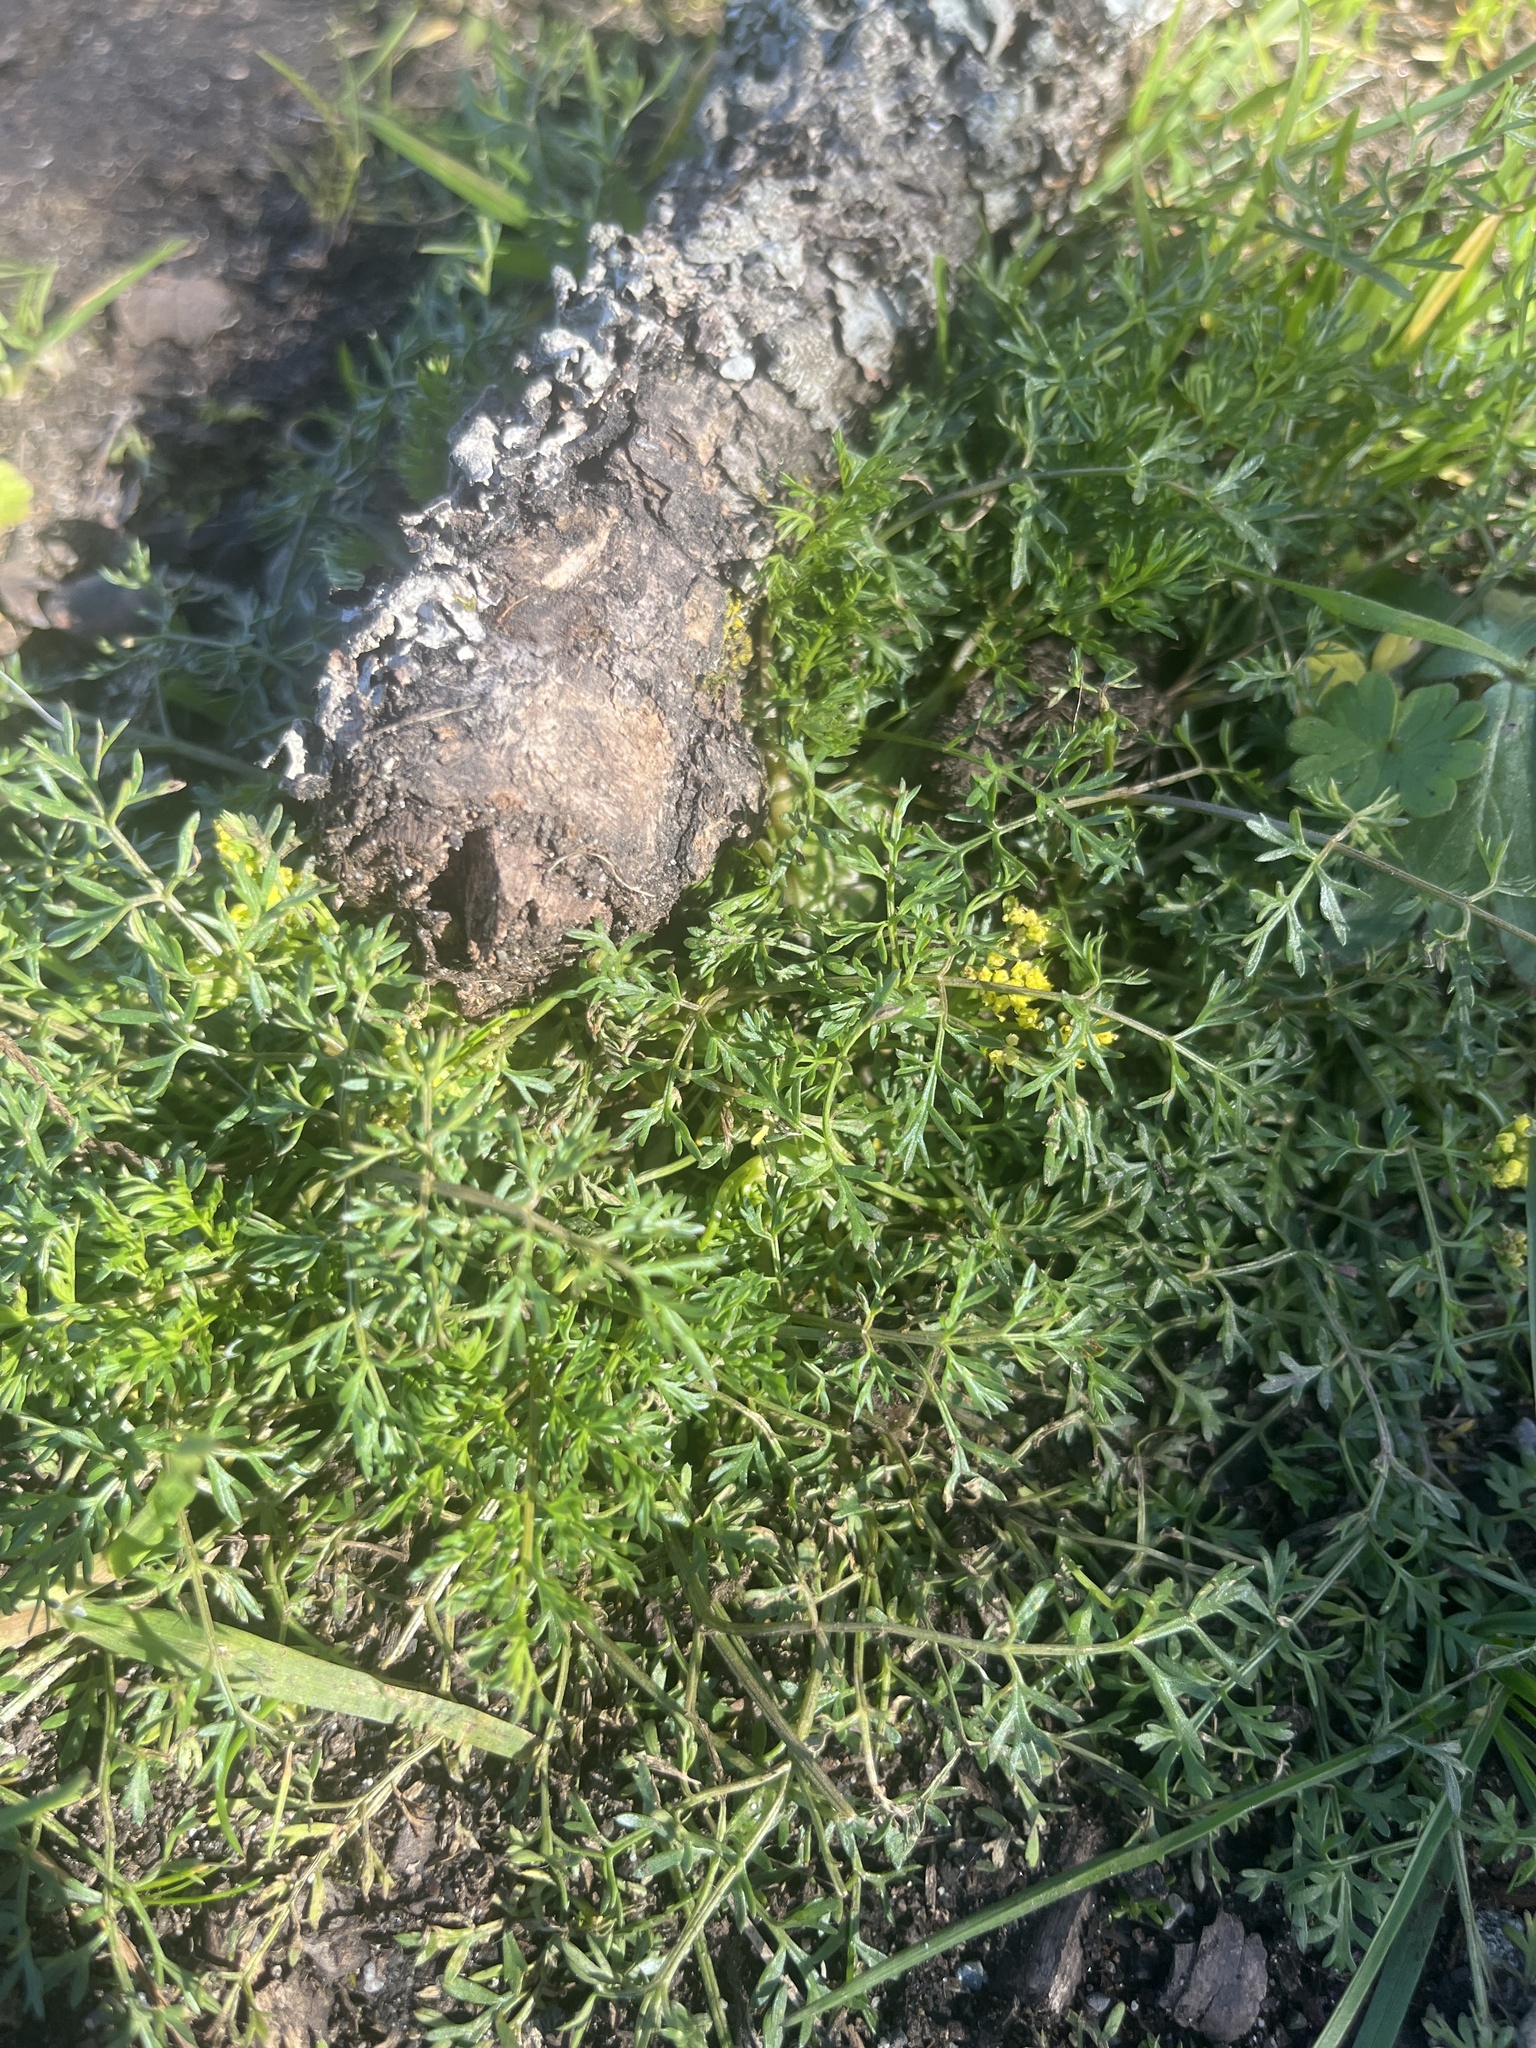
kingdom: Plantae
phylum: Tracheophyta
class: Magnoliopsida
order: Apiales
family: Apiaceae
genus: Lomatium
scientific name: Lomatium utriculatum
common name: Fine-leaf desert-parsley
